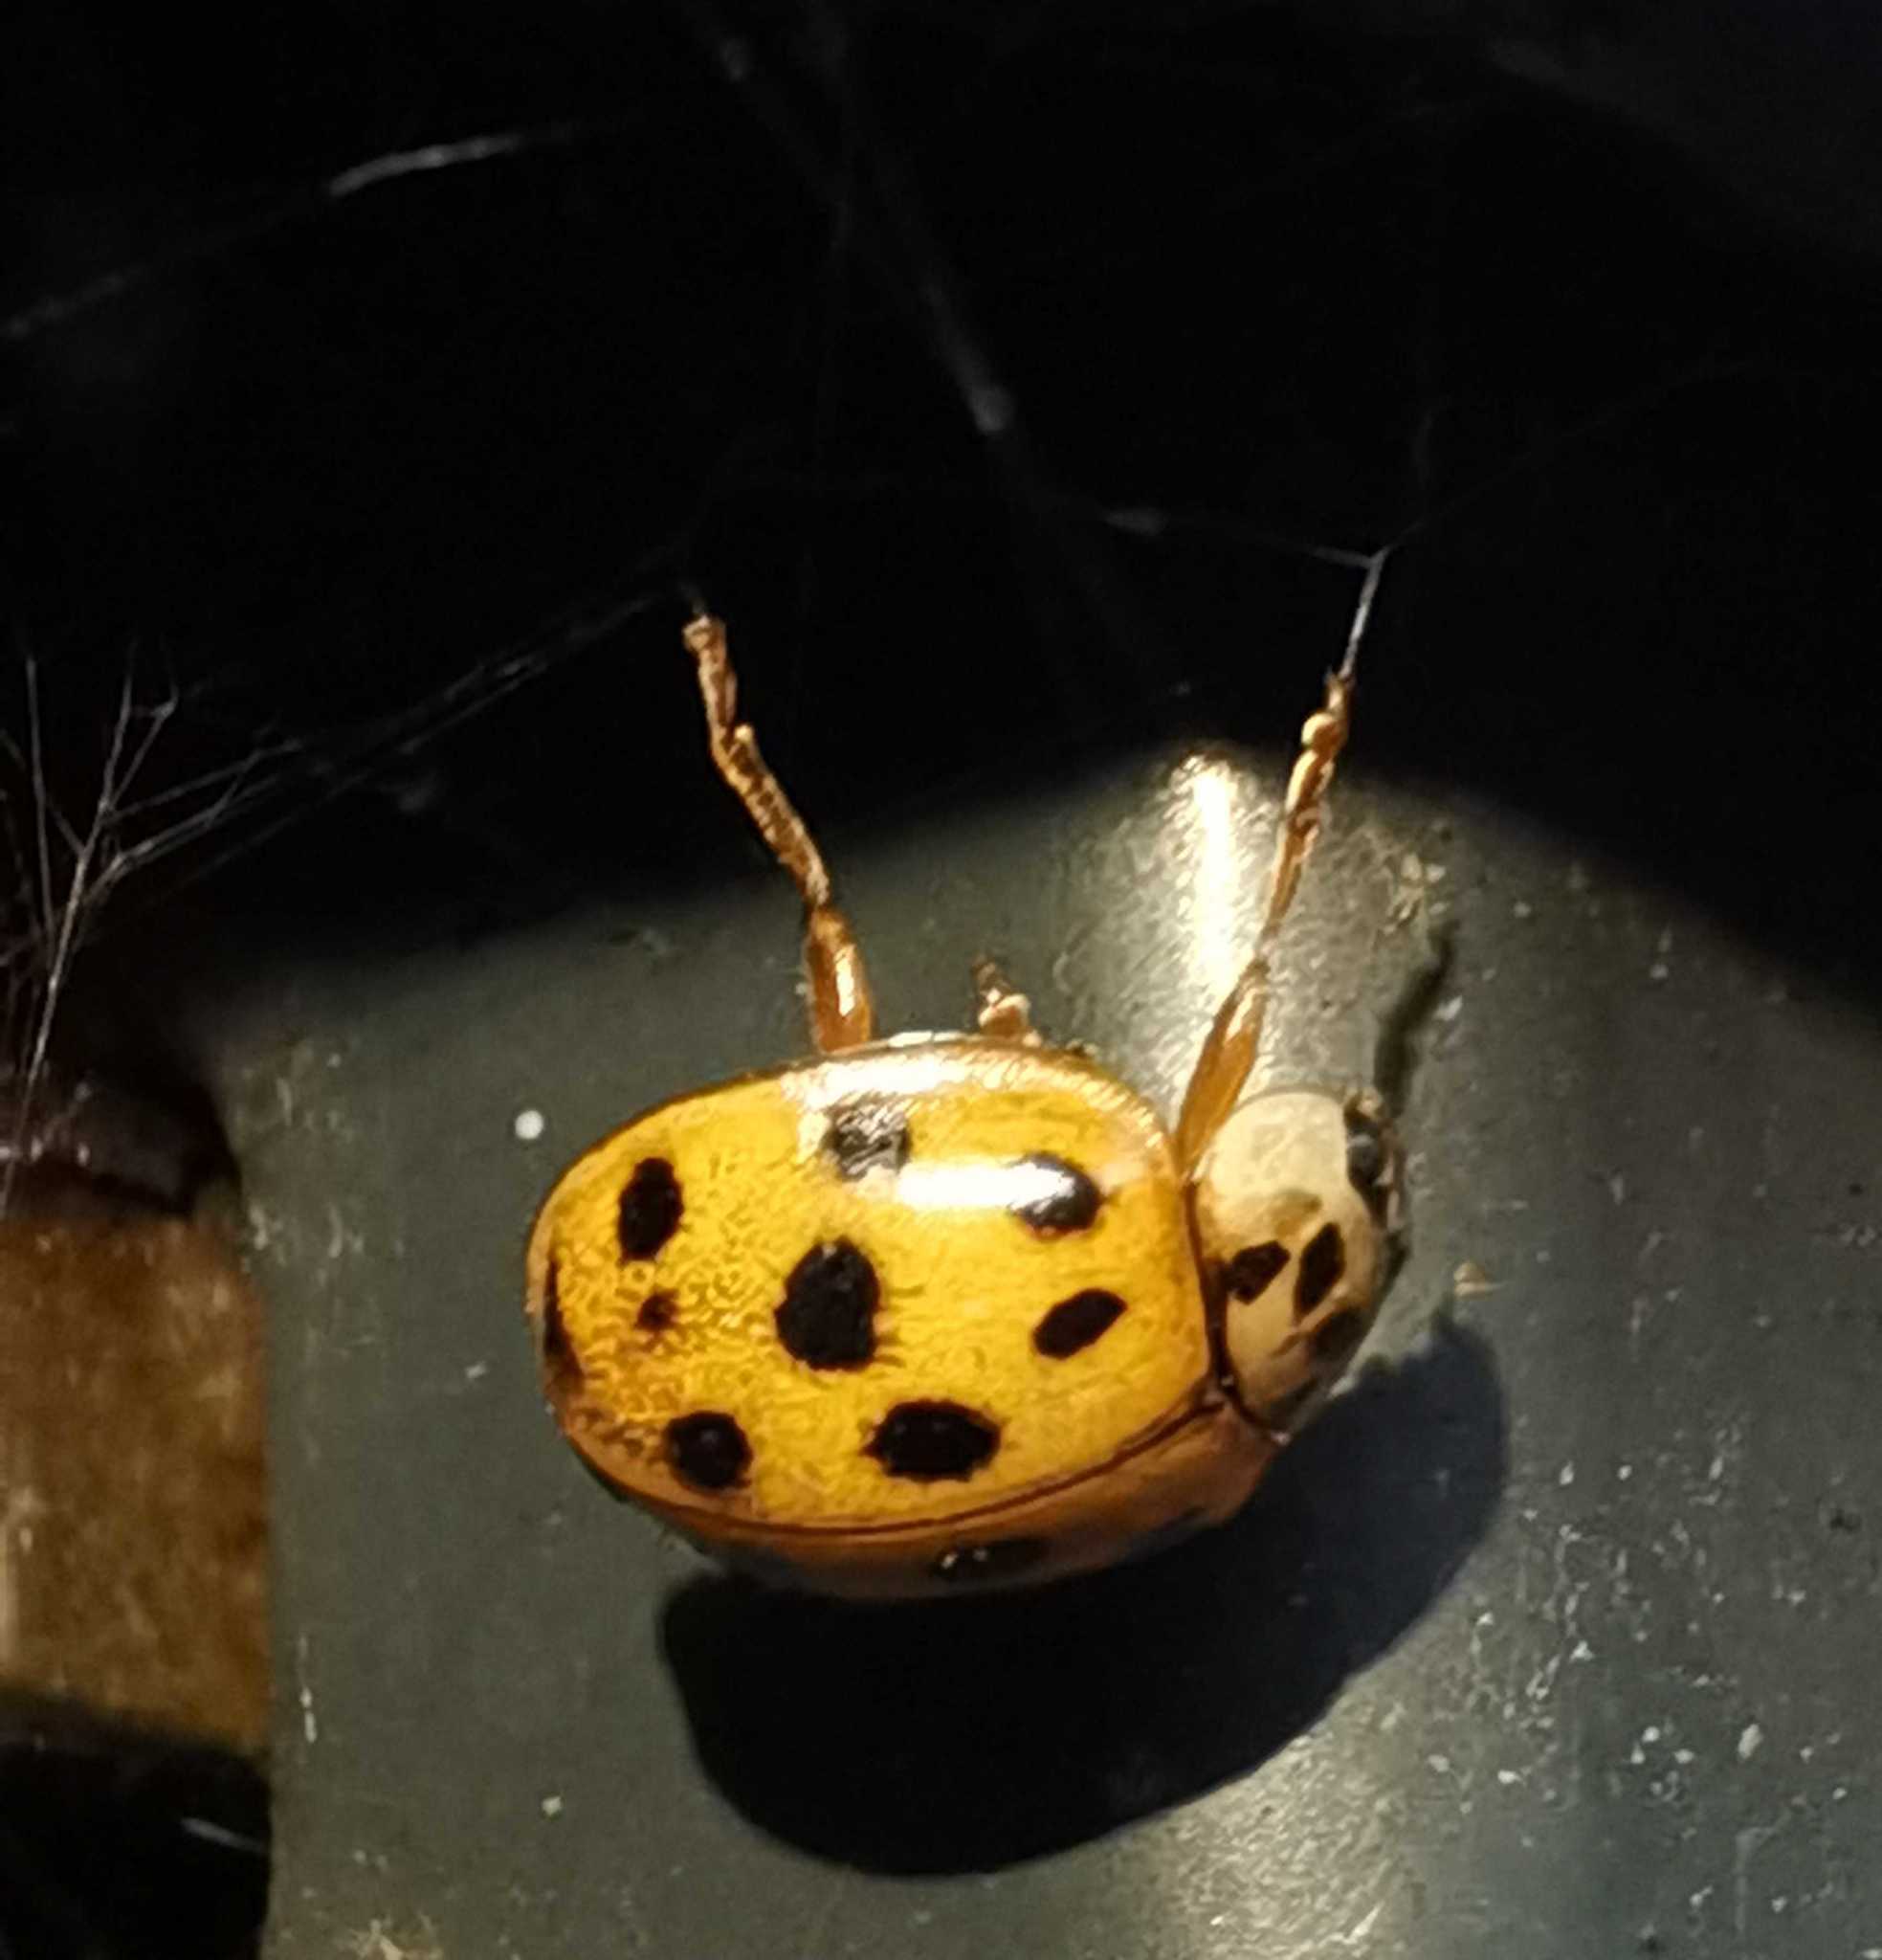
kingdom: Animalia
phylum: Arthropoda
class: Insecta
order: Coleoptera
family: Coccinellidae
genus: Harmonia
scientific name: Harmonia axyridis
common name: Harlequin ladybird
